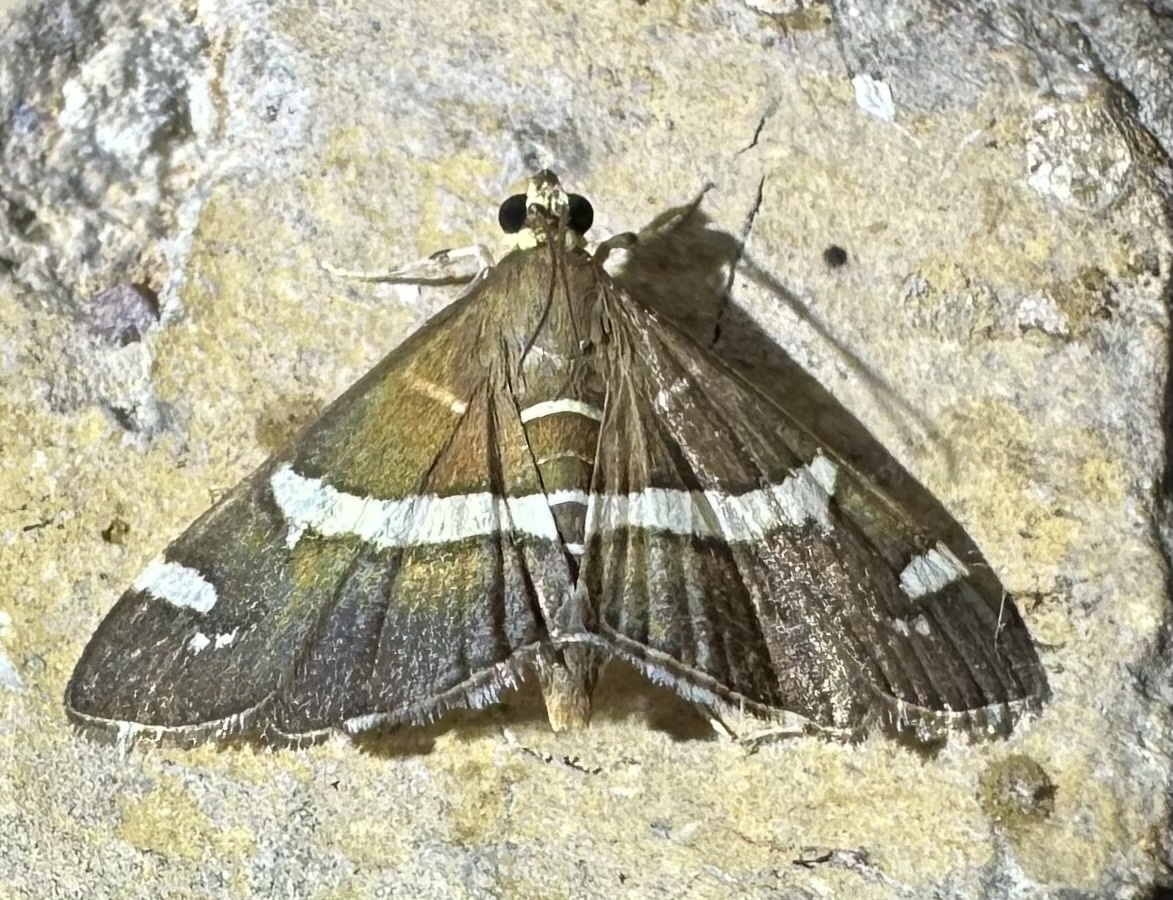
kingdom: Animalia
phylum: Arthropoda
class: Insecta
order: Lepidoptera
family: Crambidae
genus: Spoladea
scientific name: Spoladea recurvalis
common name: Beet webworm moth
